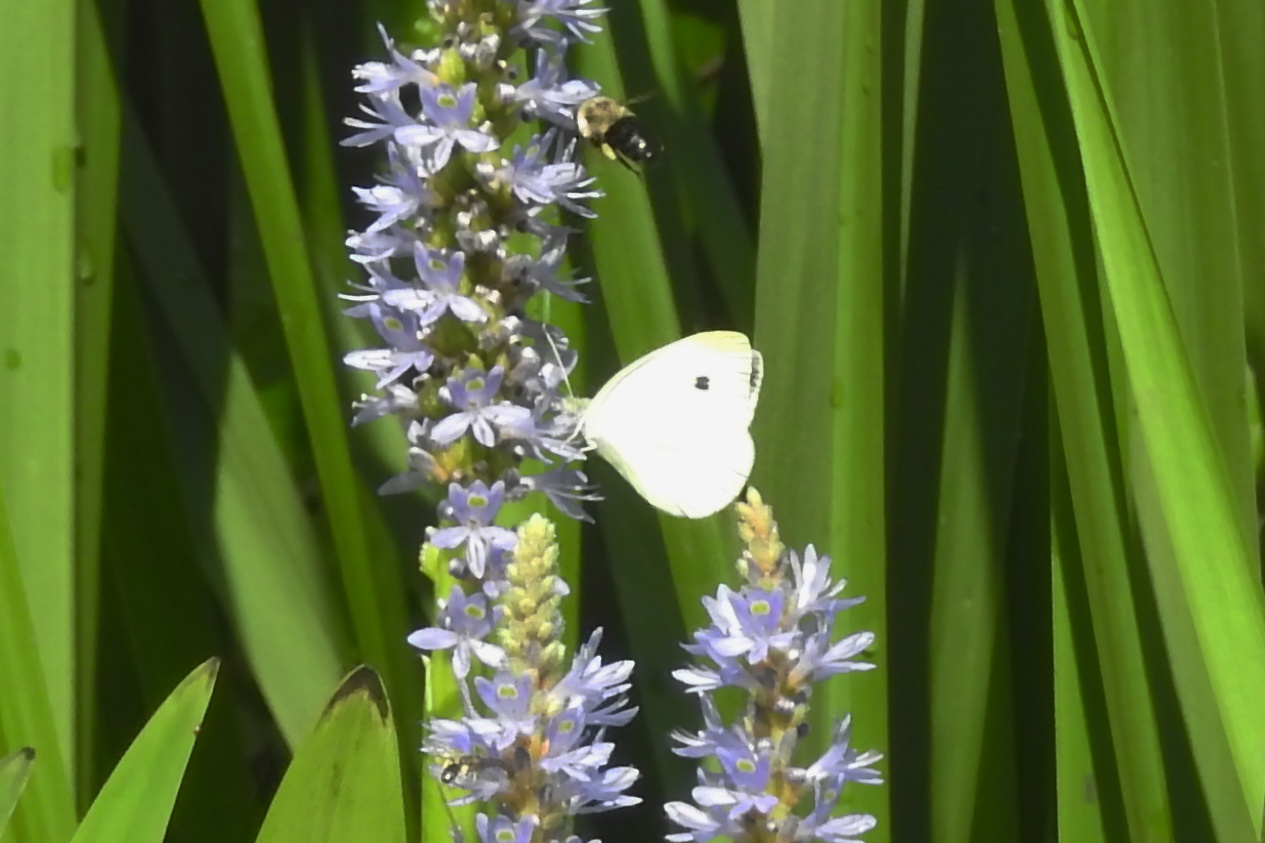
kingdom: Animalia
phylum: Arthropoda
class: Insecta
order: Lepidoptera
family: Pieridae
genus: Pieris
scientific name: Pieris rapae
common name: Small white
